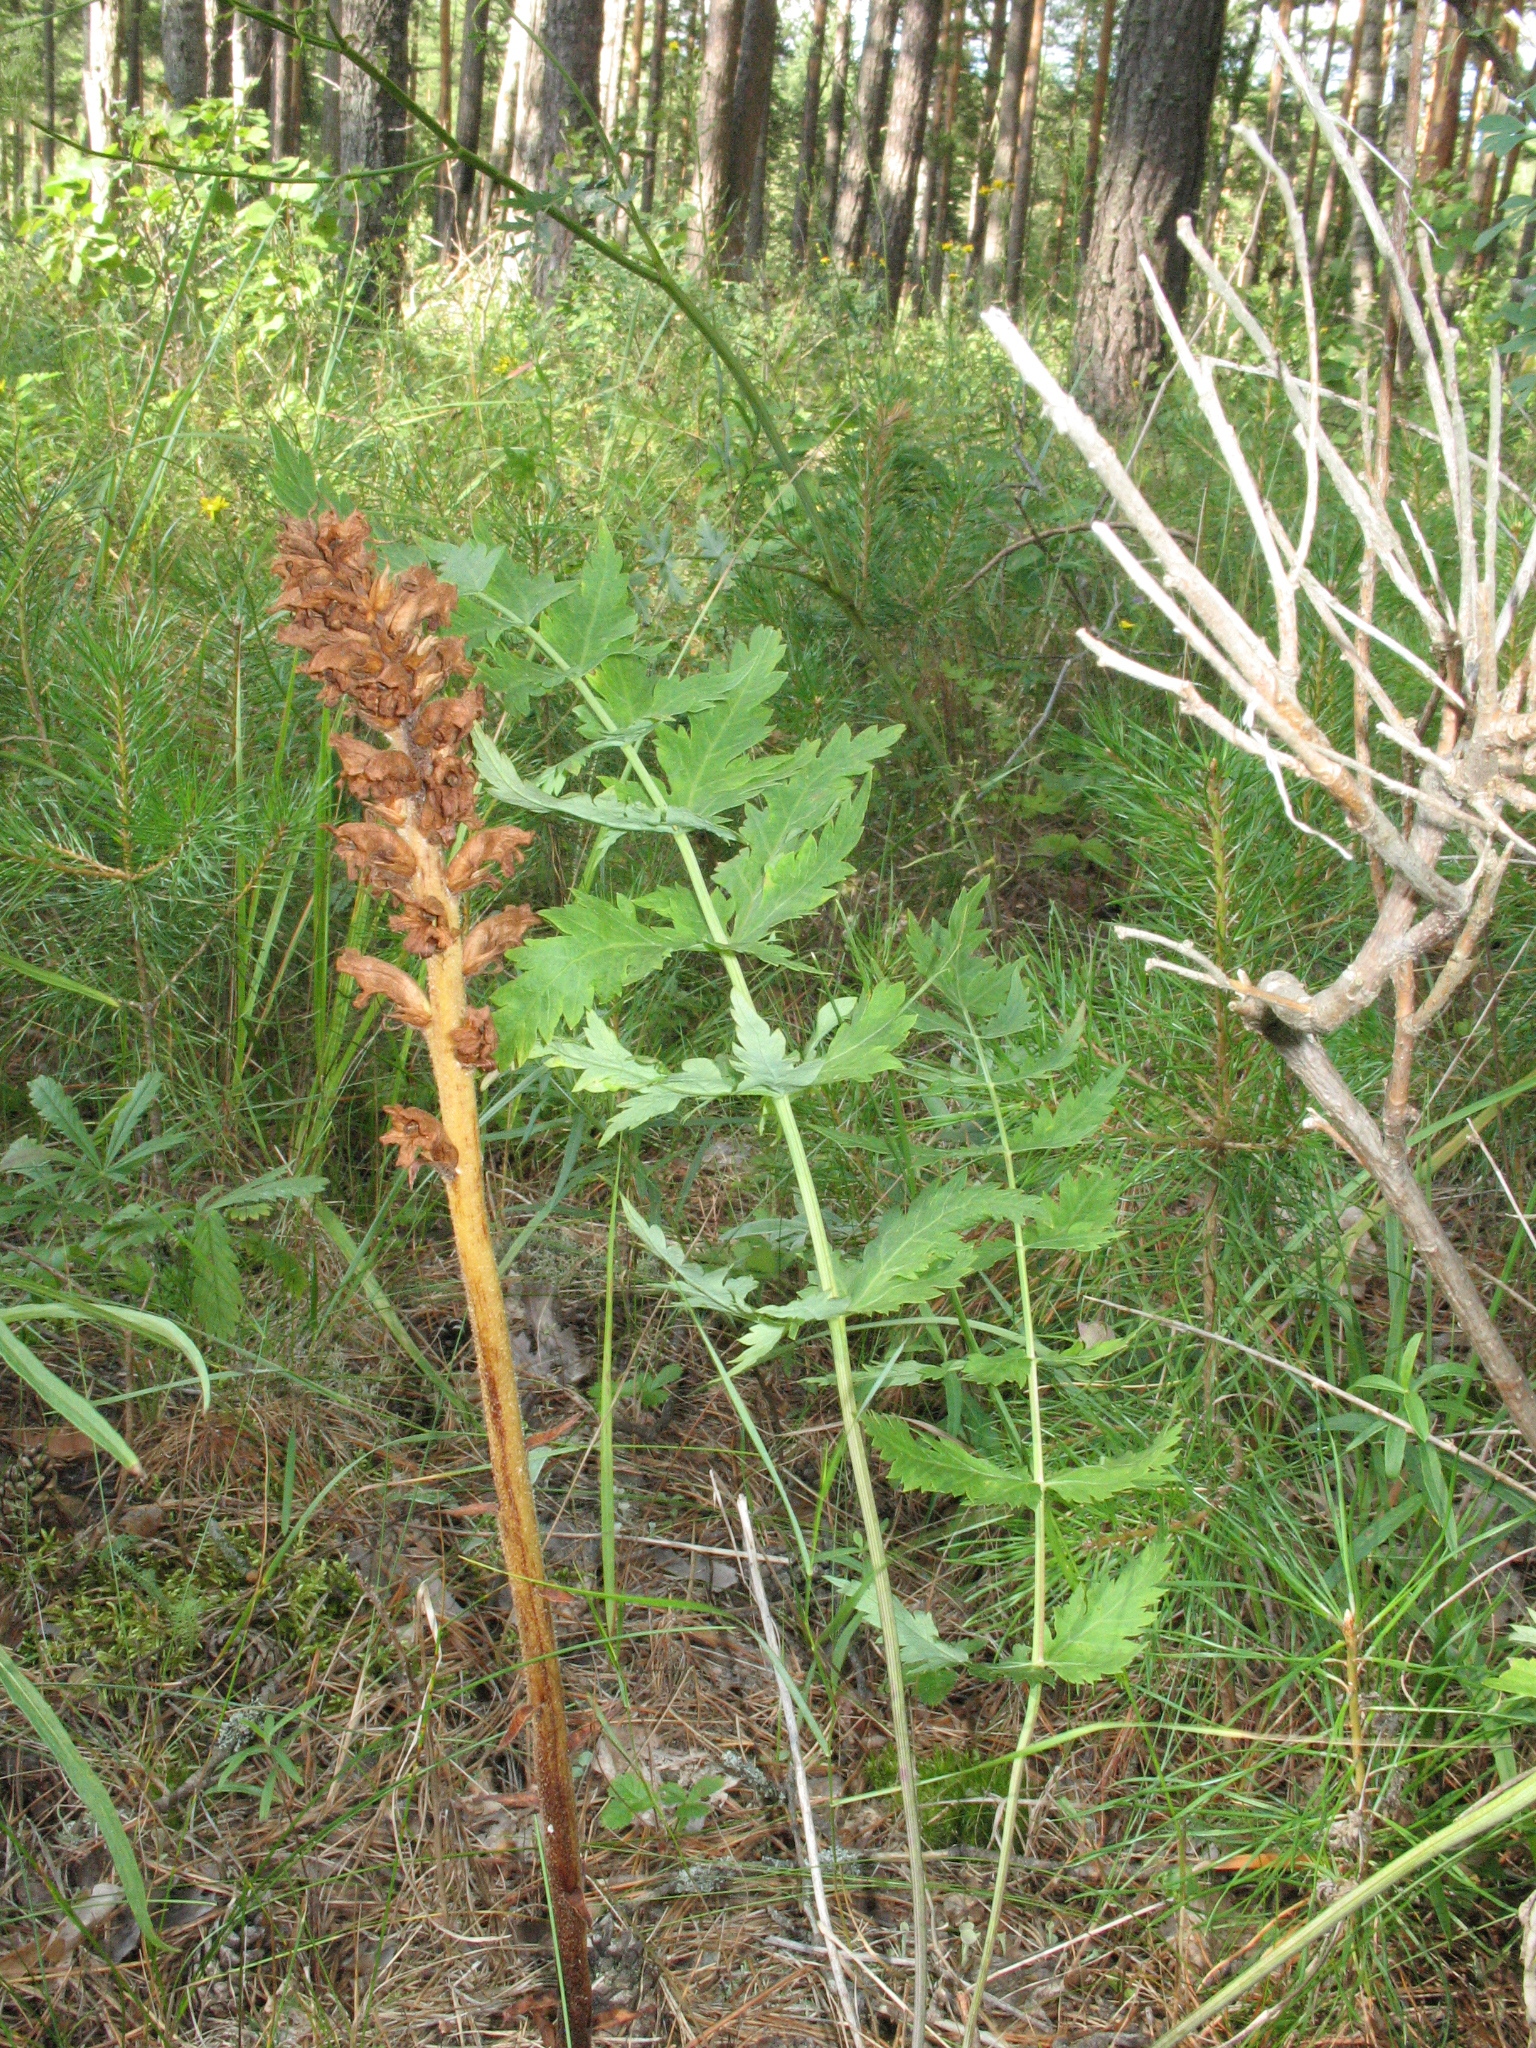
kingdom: Plantae
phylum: Tracheophyta
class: Magnoliopsida
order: Lamiales
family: Orobanchaceae
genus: Orobanche
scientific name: Orobanche alsatica
